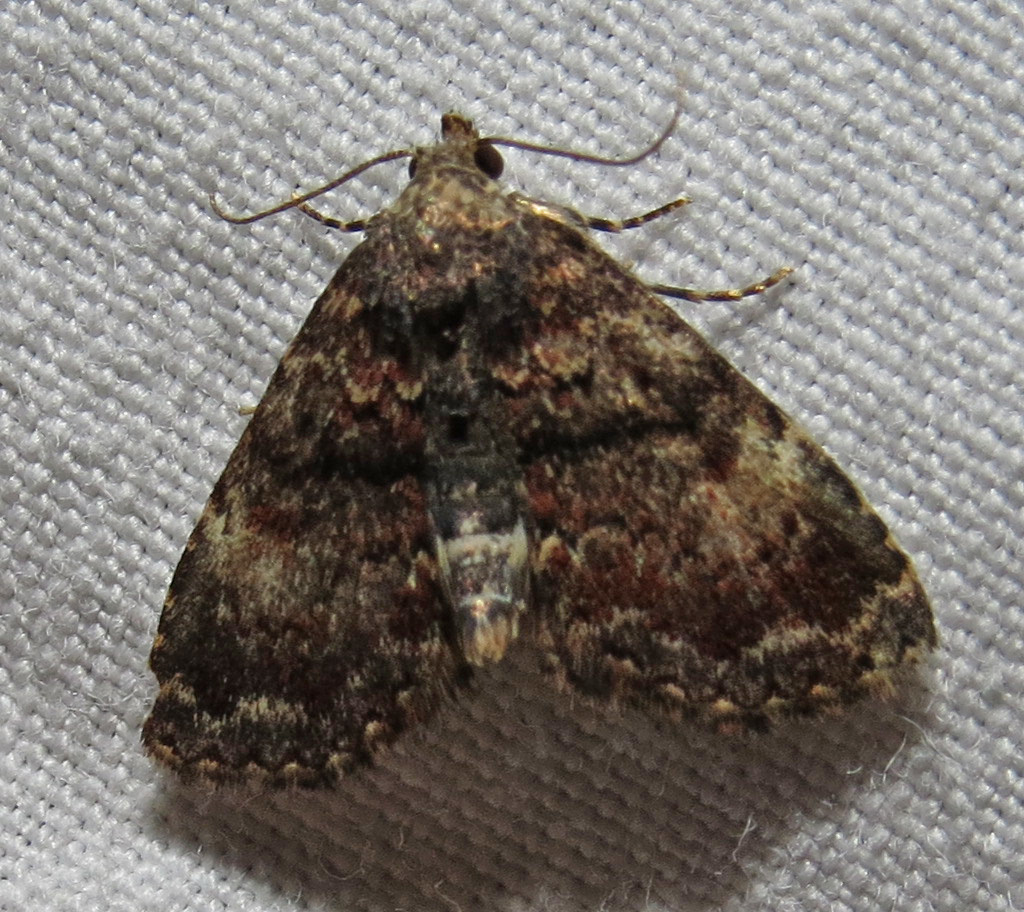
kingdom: Animalia
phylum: Arthropoda
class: Insecta
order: Lepidoptera
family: Erebidae
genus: Metalectra
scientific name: Metalectra richardsi
